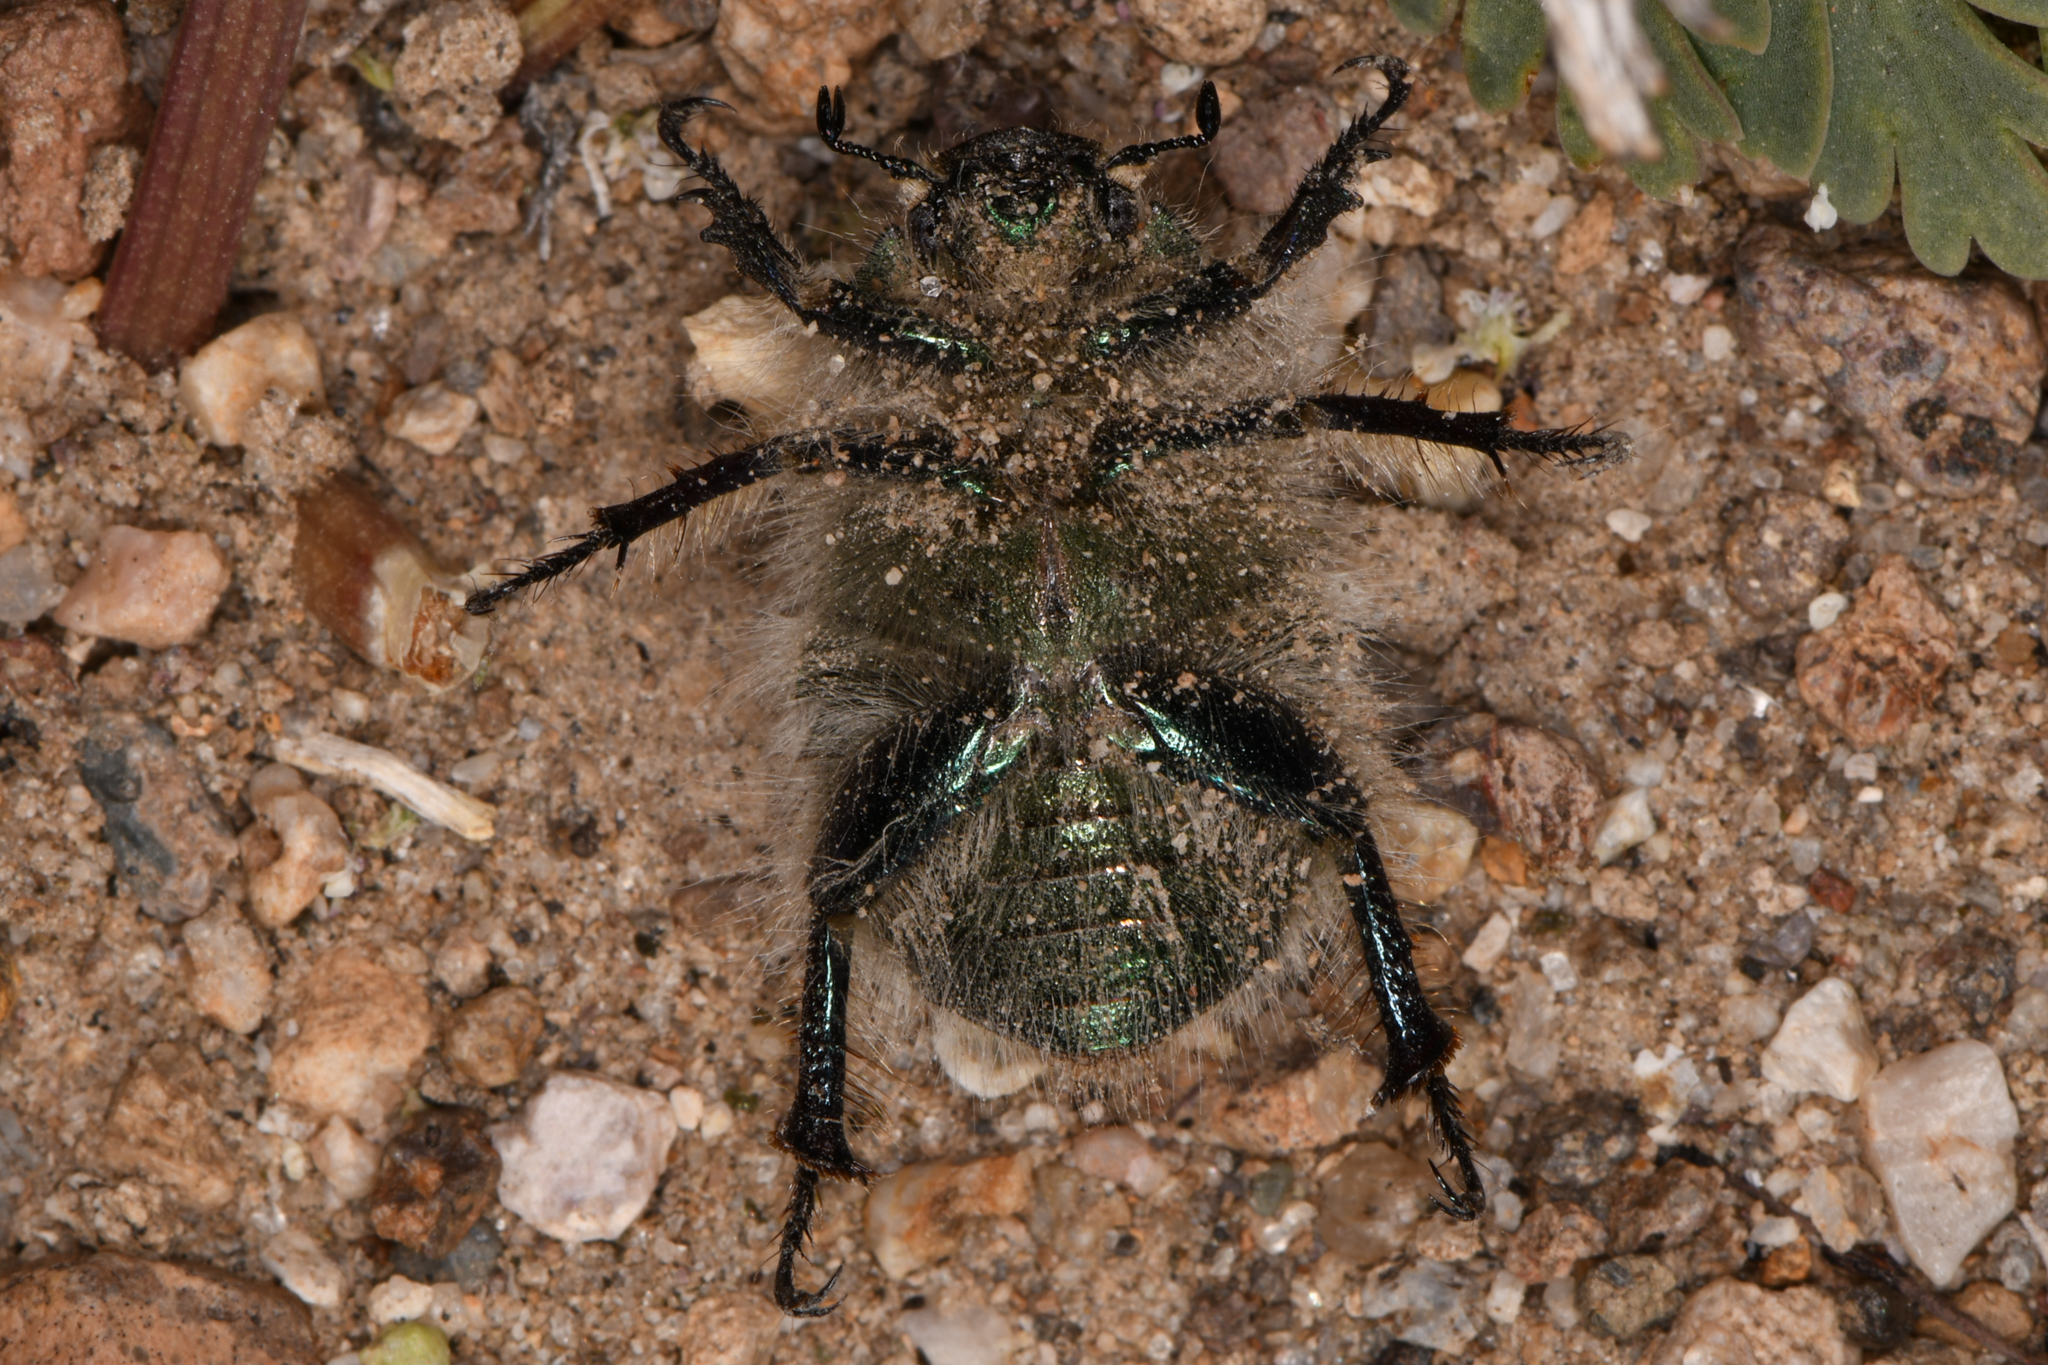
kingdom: Animalia
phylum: Arthropoda
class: Insecta
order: Coleoptera
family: Scarabaeidae
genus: Paracotalpa
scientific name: Paracotalpa granicollis
